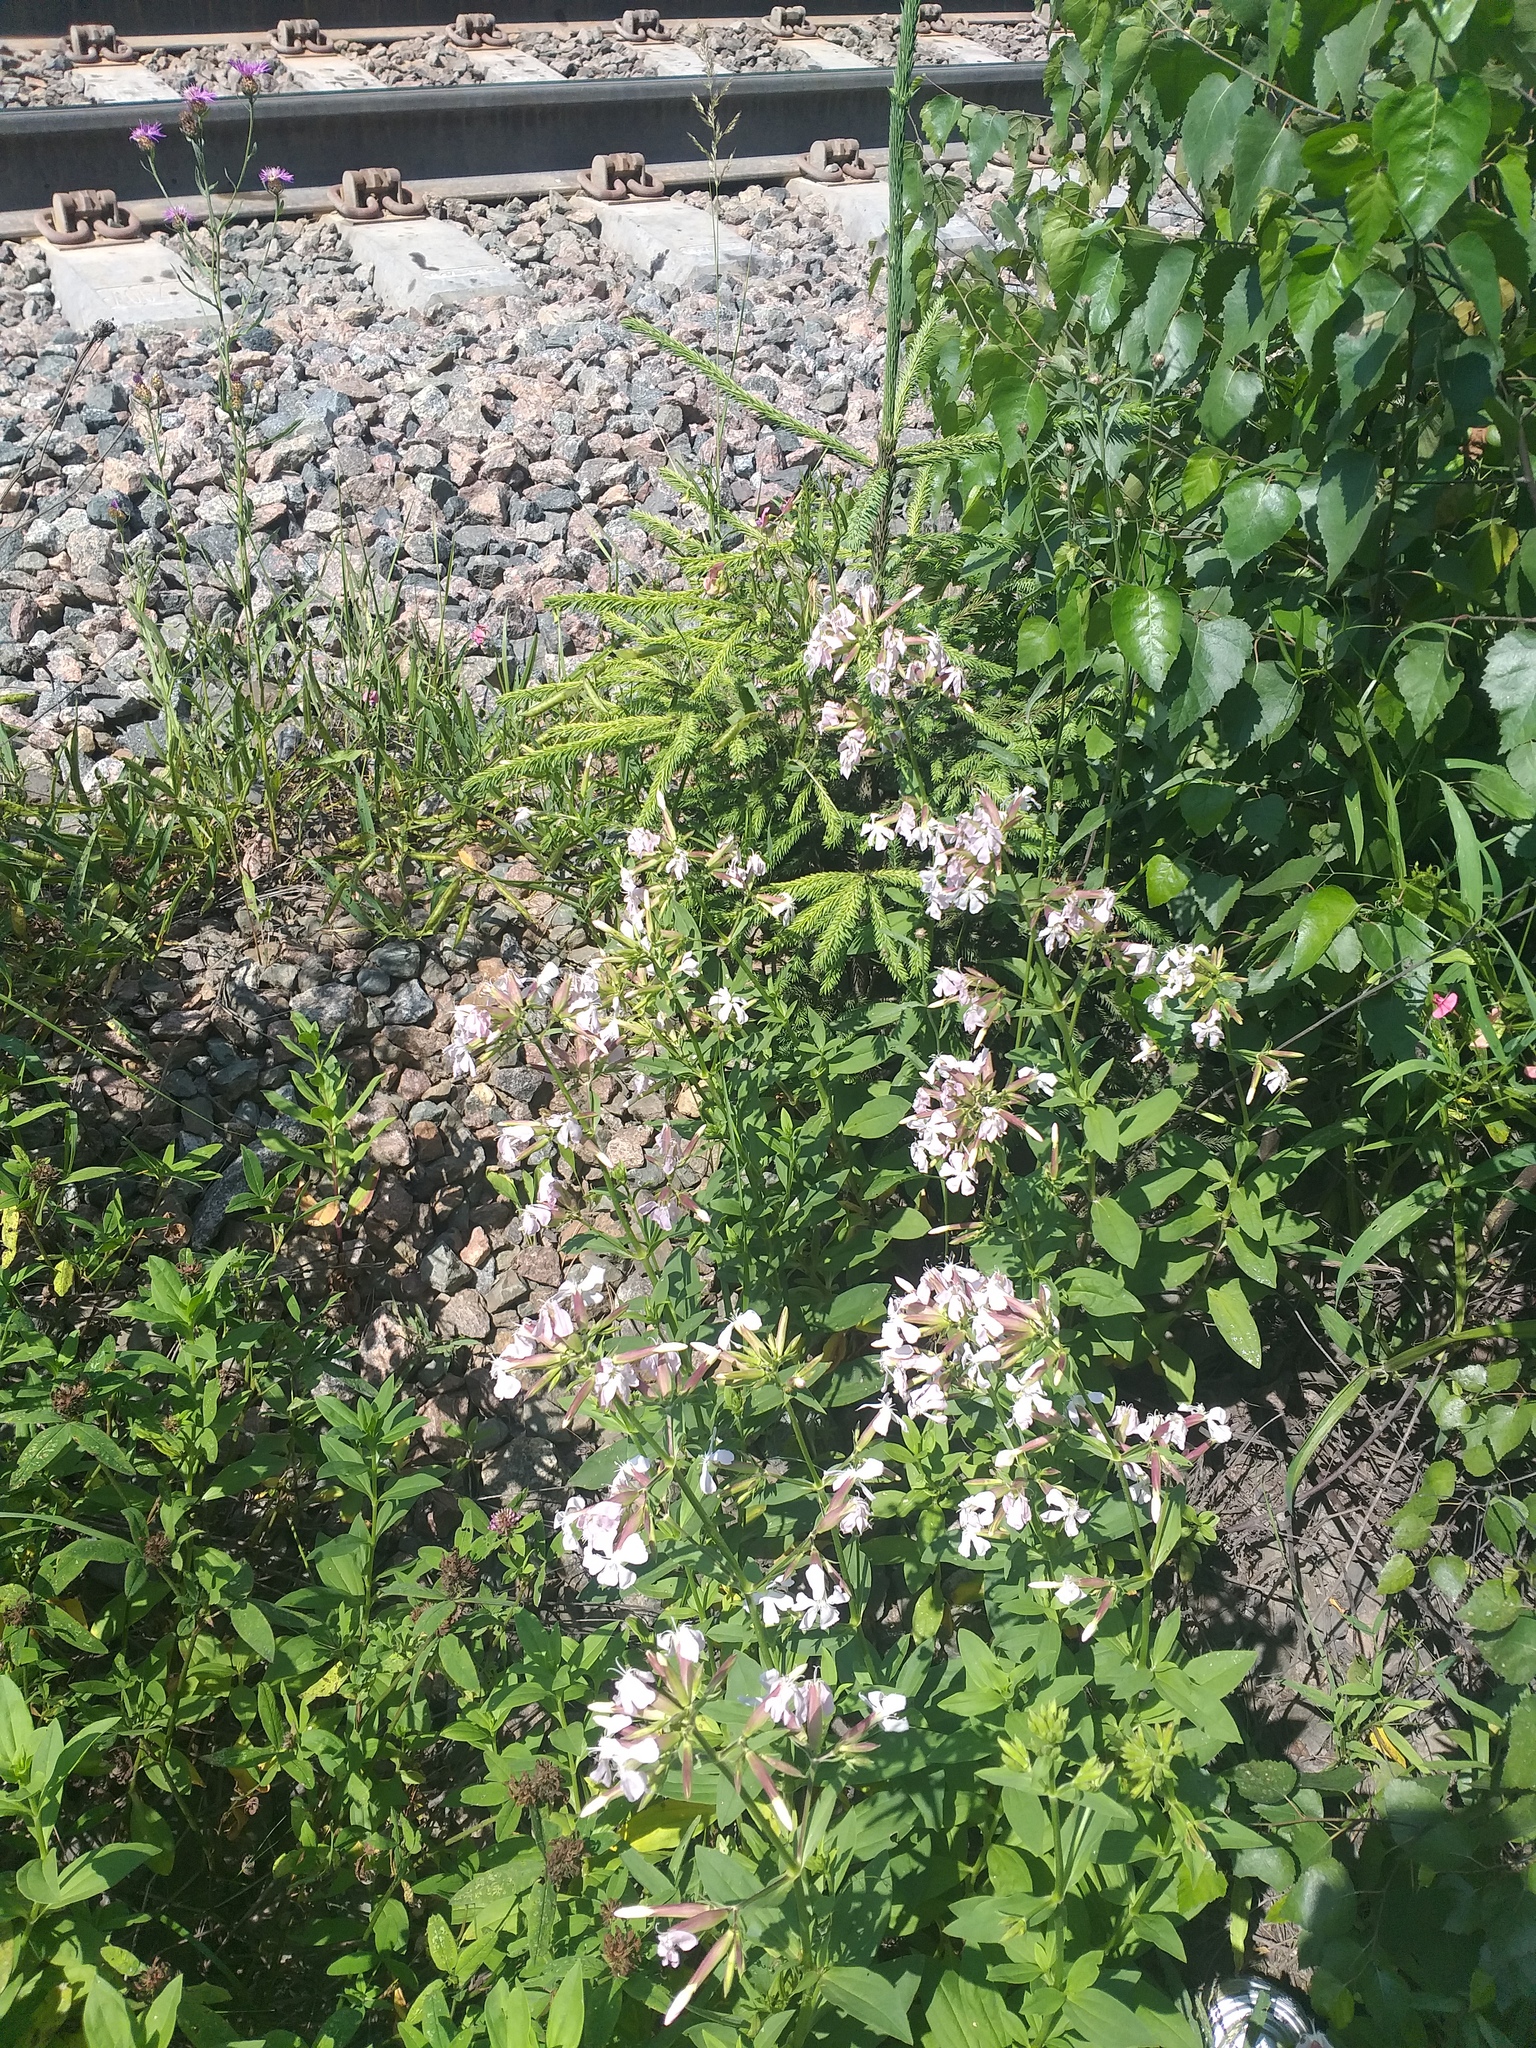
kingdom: Plantae
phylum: Tracheophyta
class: Magnoliopsida
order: Caryophyllales
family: Caryophyllaceae
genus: Saponaria
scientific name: Saponaria officinalis
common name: Soapwort
